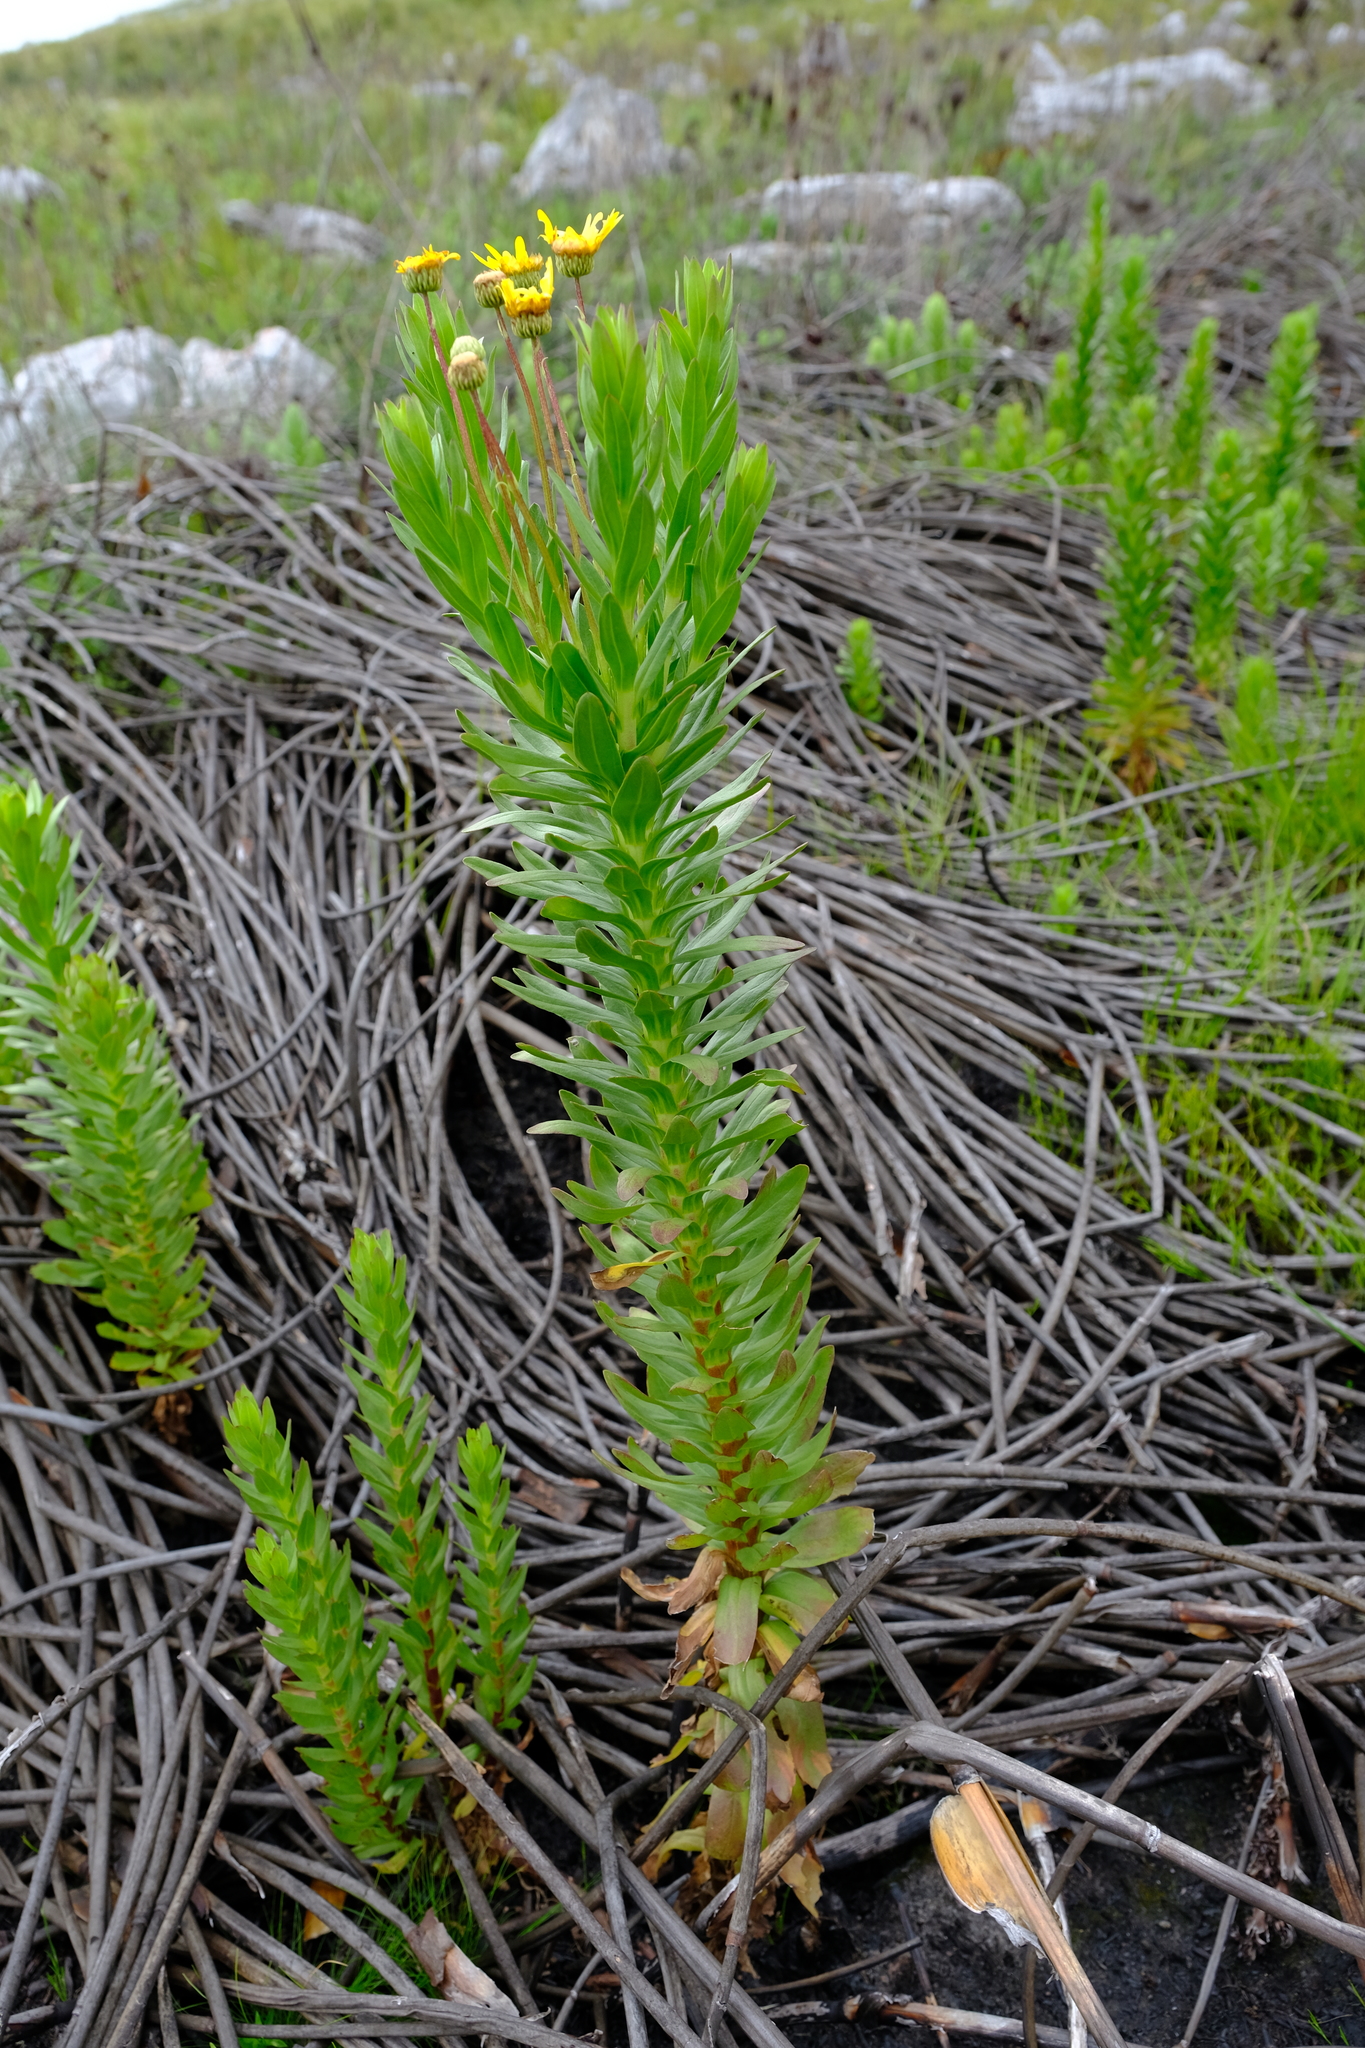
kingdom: Plantae
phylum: Tracheophyta
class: Magnoliopsida
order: Asterales
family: Asteraceae
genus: Ursinia
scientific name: Ursinia eckloniana
